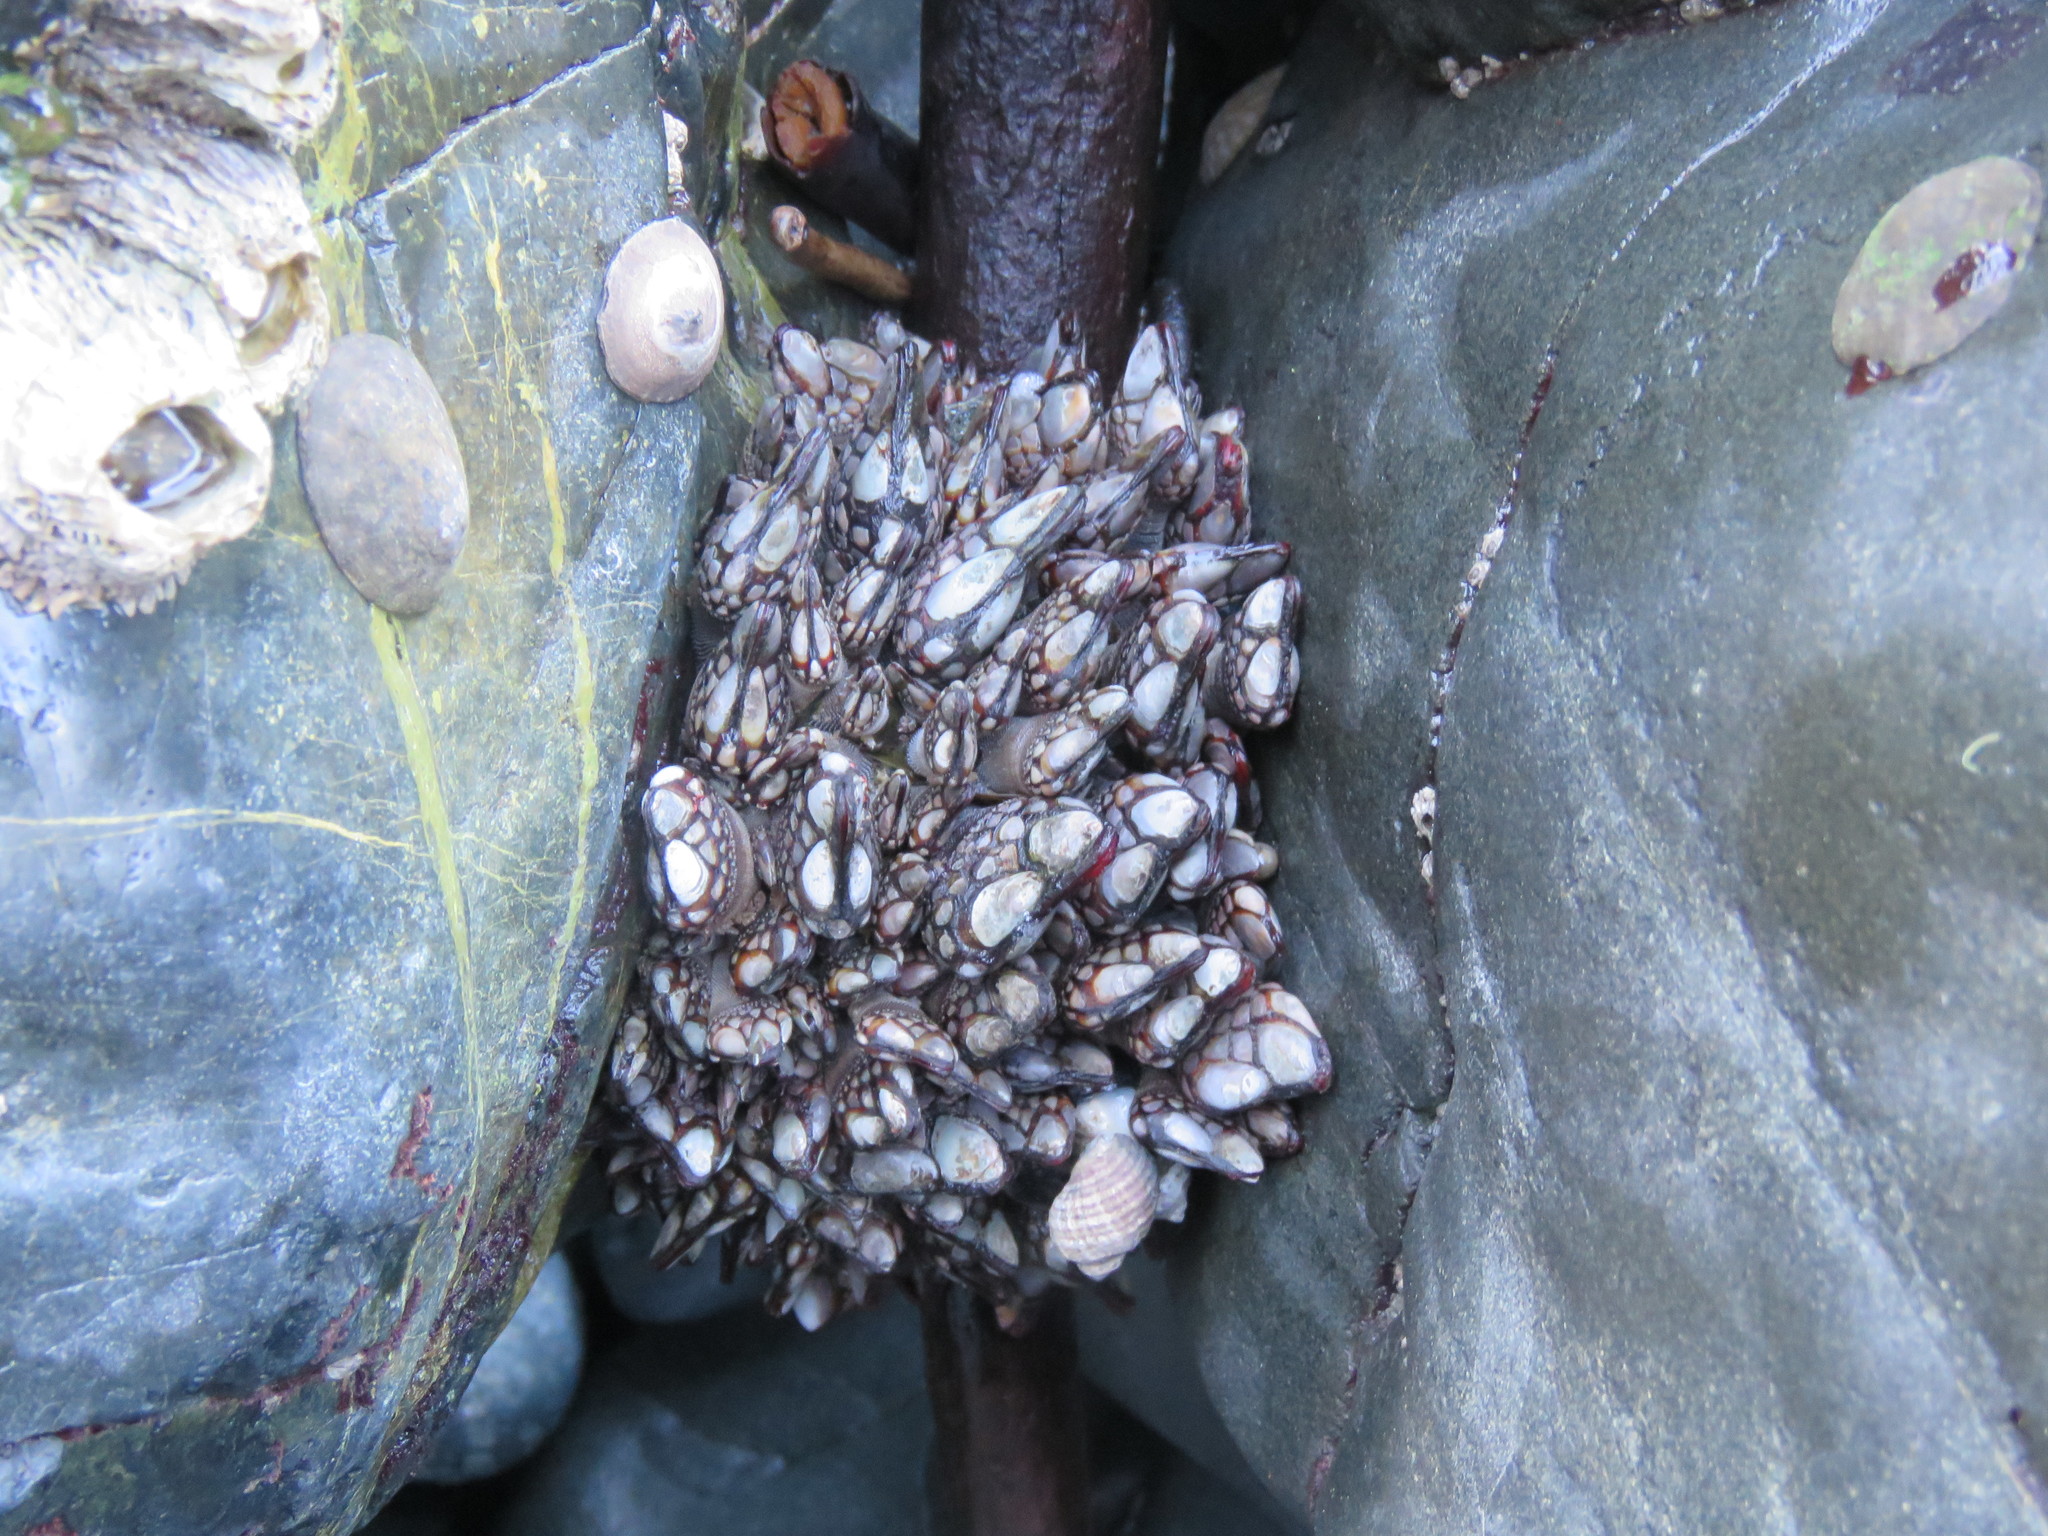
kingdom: Animalia
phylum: Arthropoda
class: Maxillopoda
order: Pedunculata
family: Pollicipedidae
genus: Pollicipes
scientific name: Pollicipes polymerus
